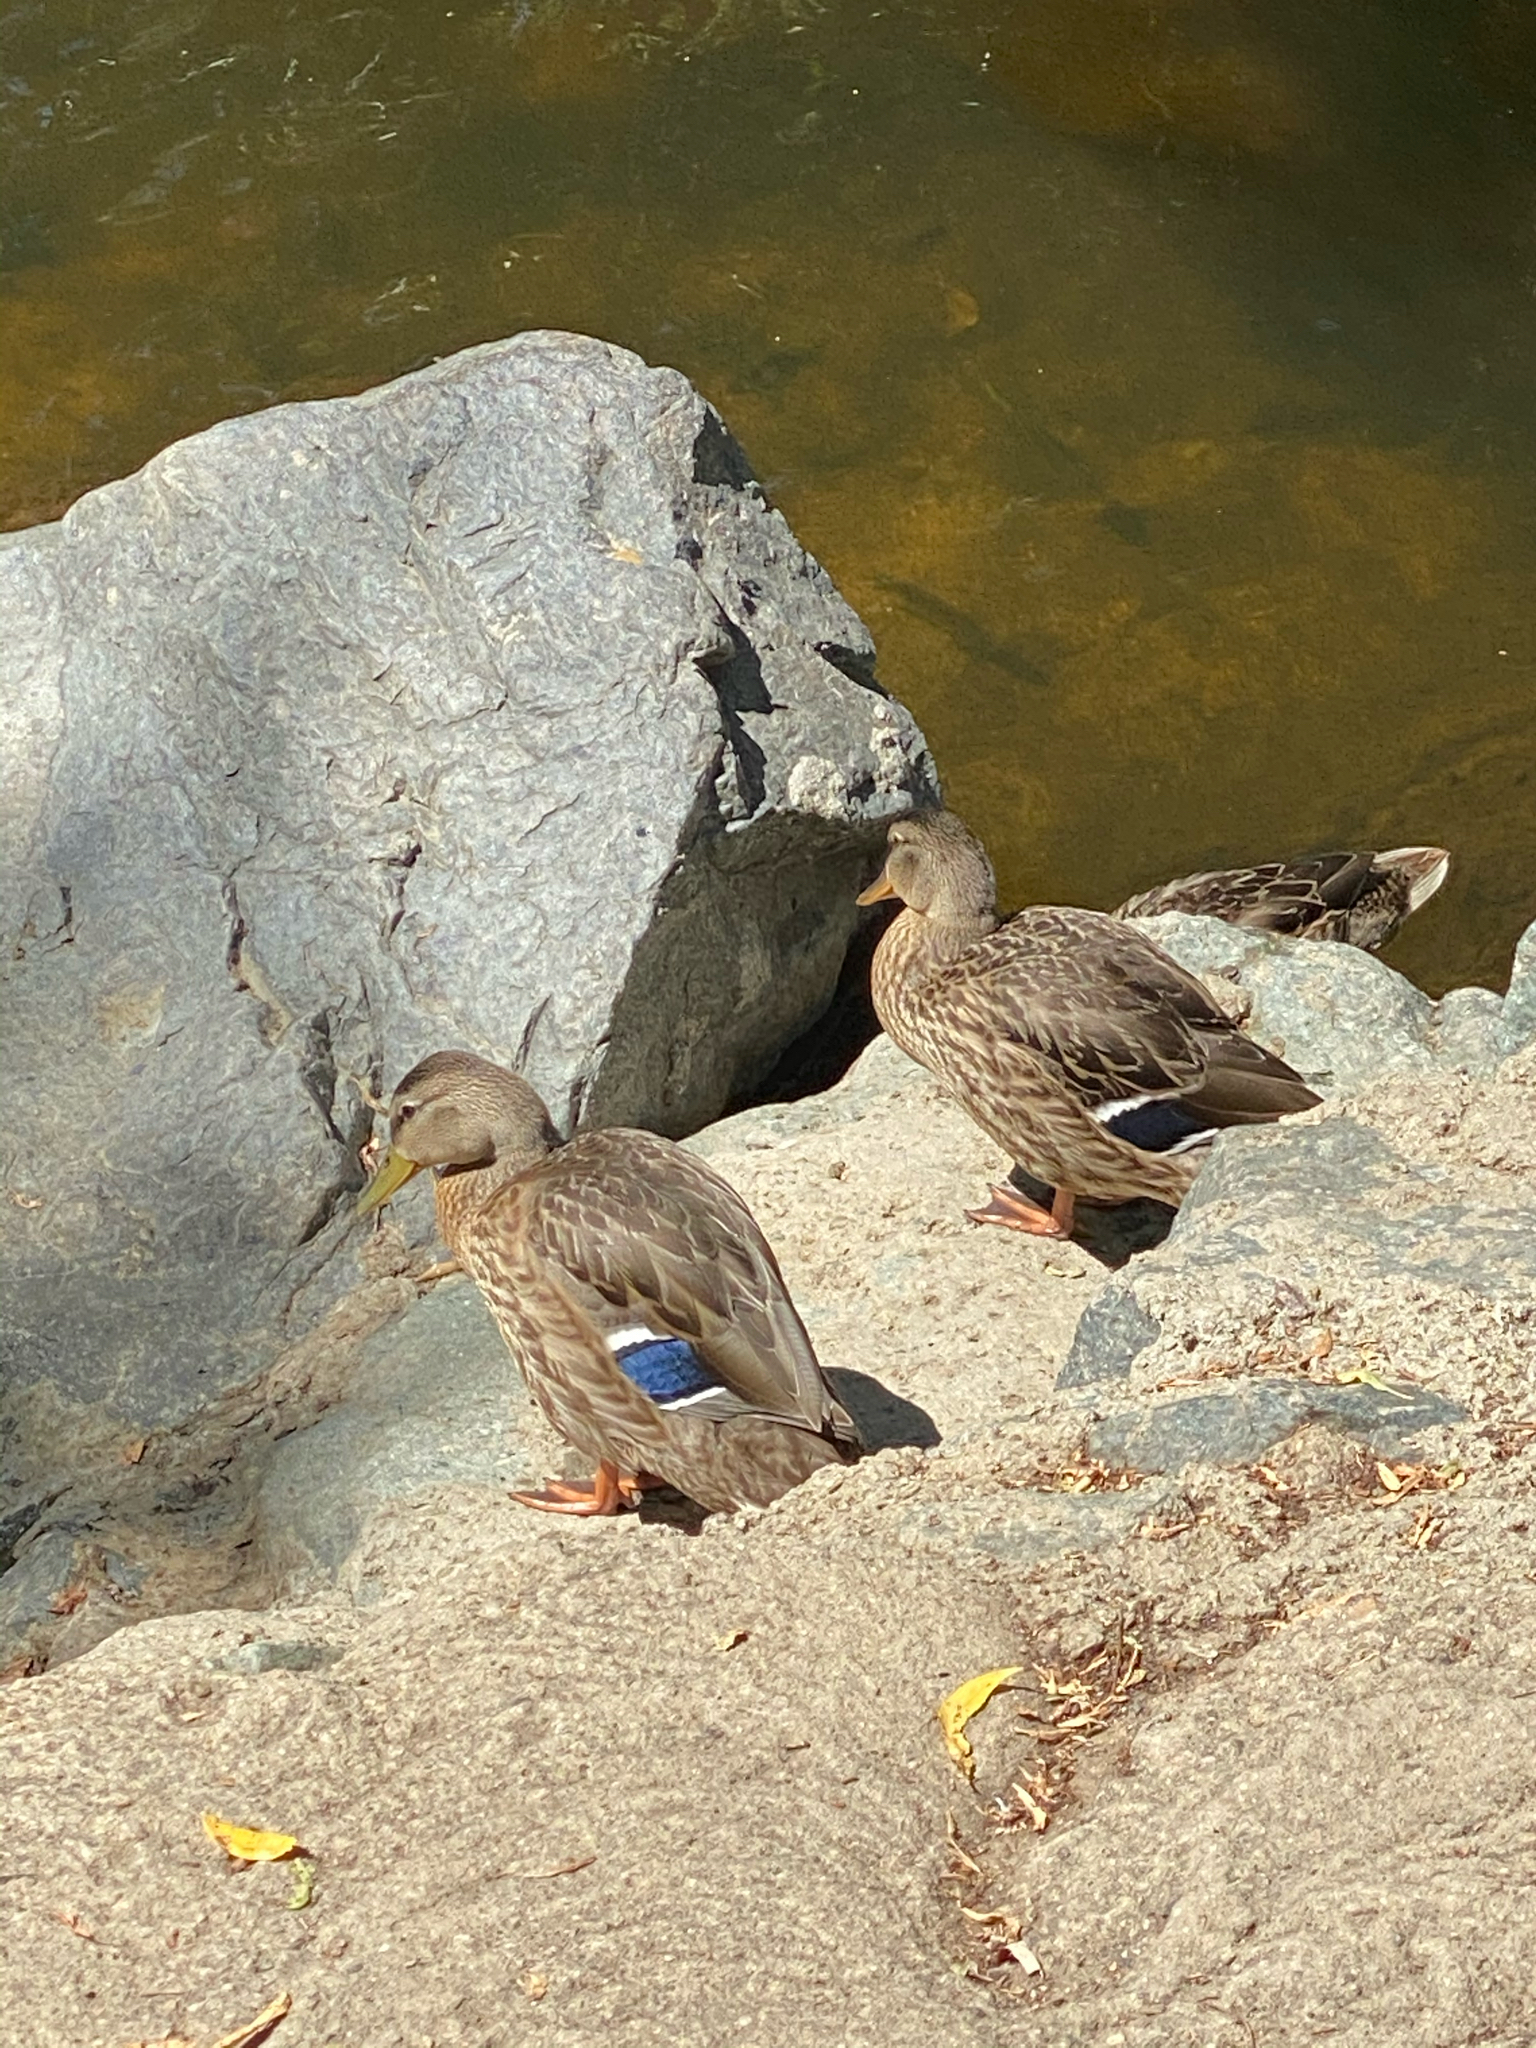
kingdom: Animalia
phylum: Chordata
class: Aves
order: Anseriformes
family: Anatidae
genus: Anas
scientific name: Anas platyrhynchos
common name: Mallard
